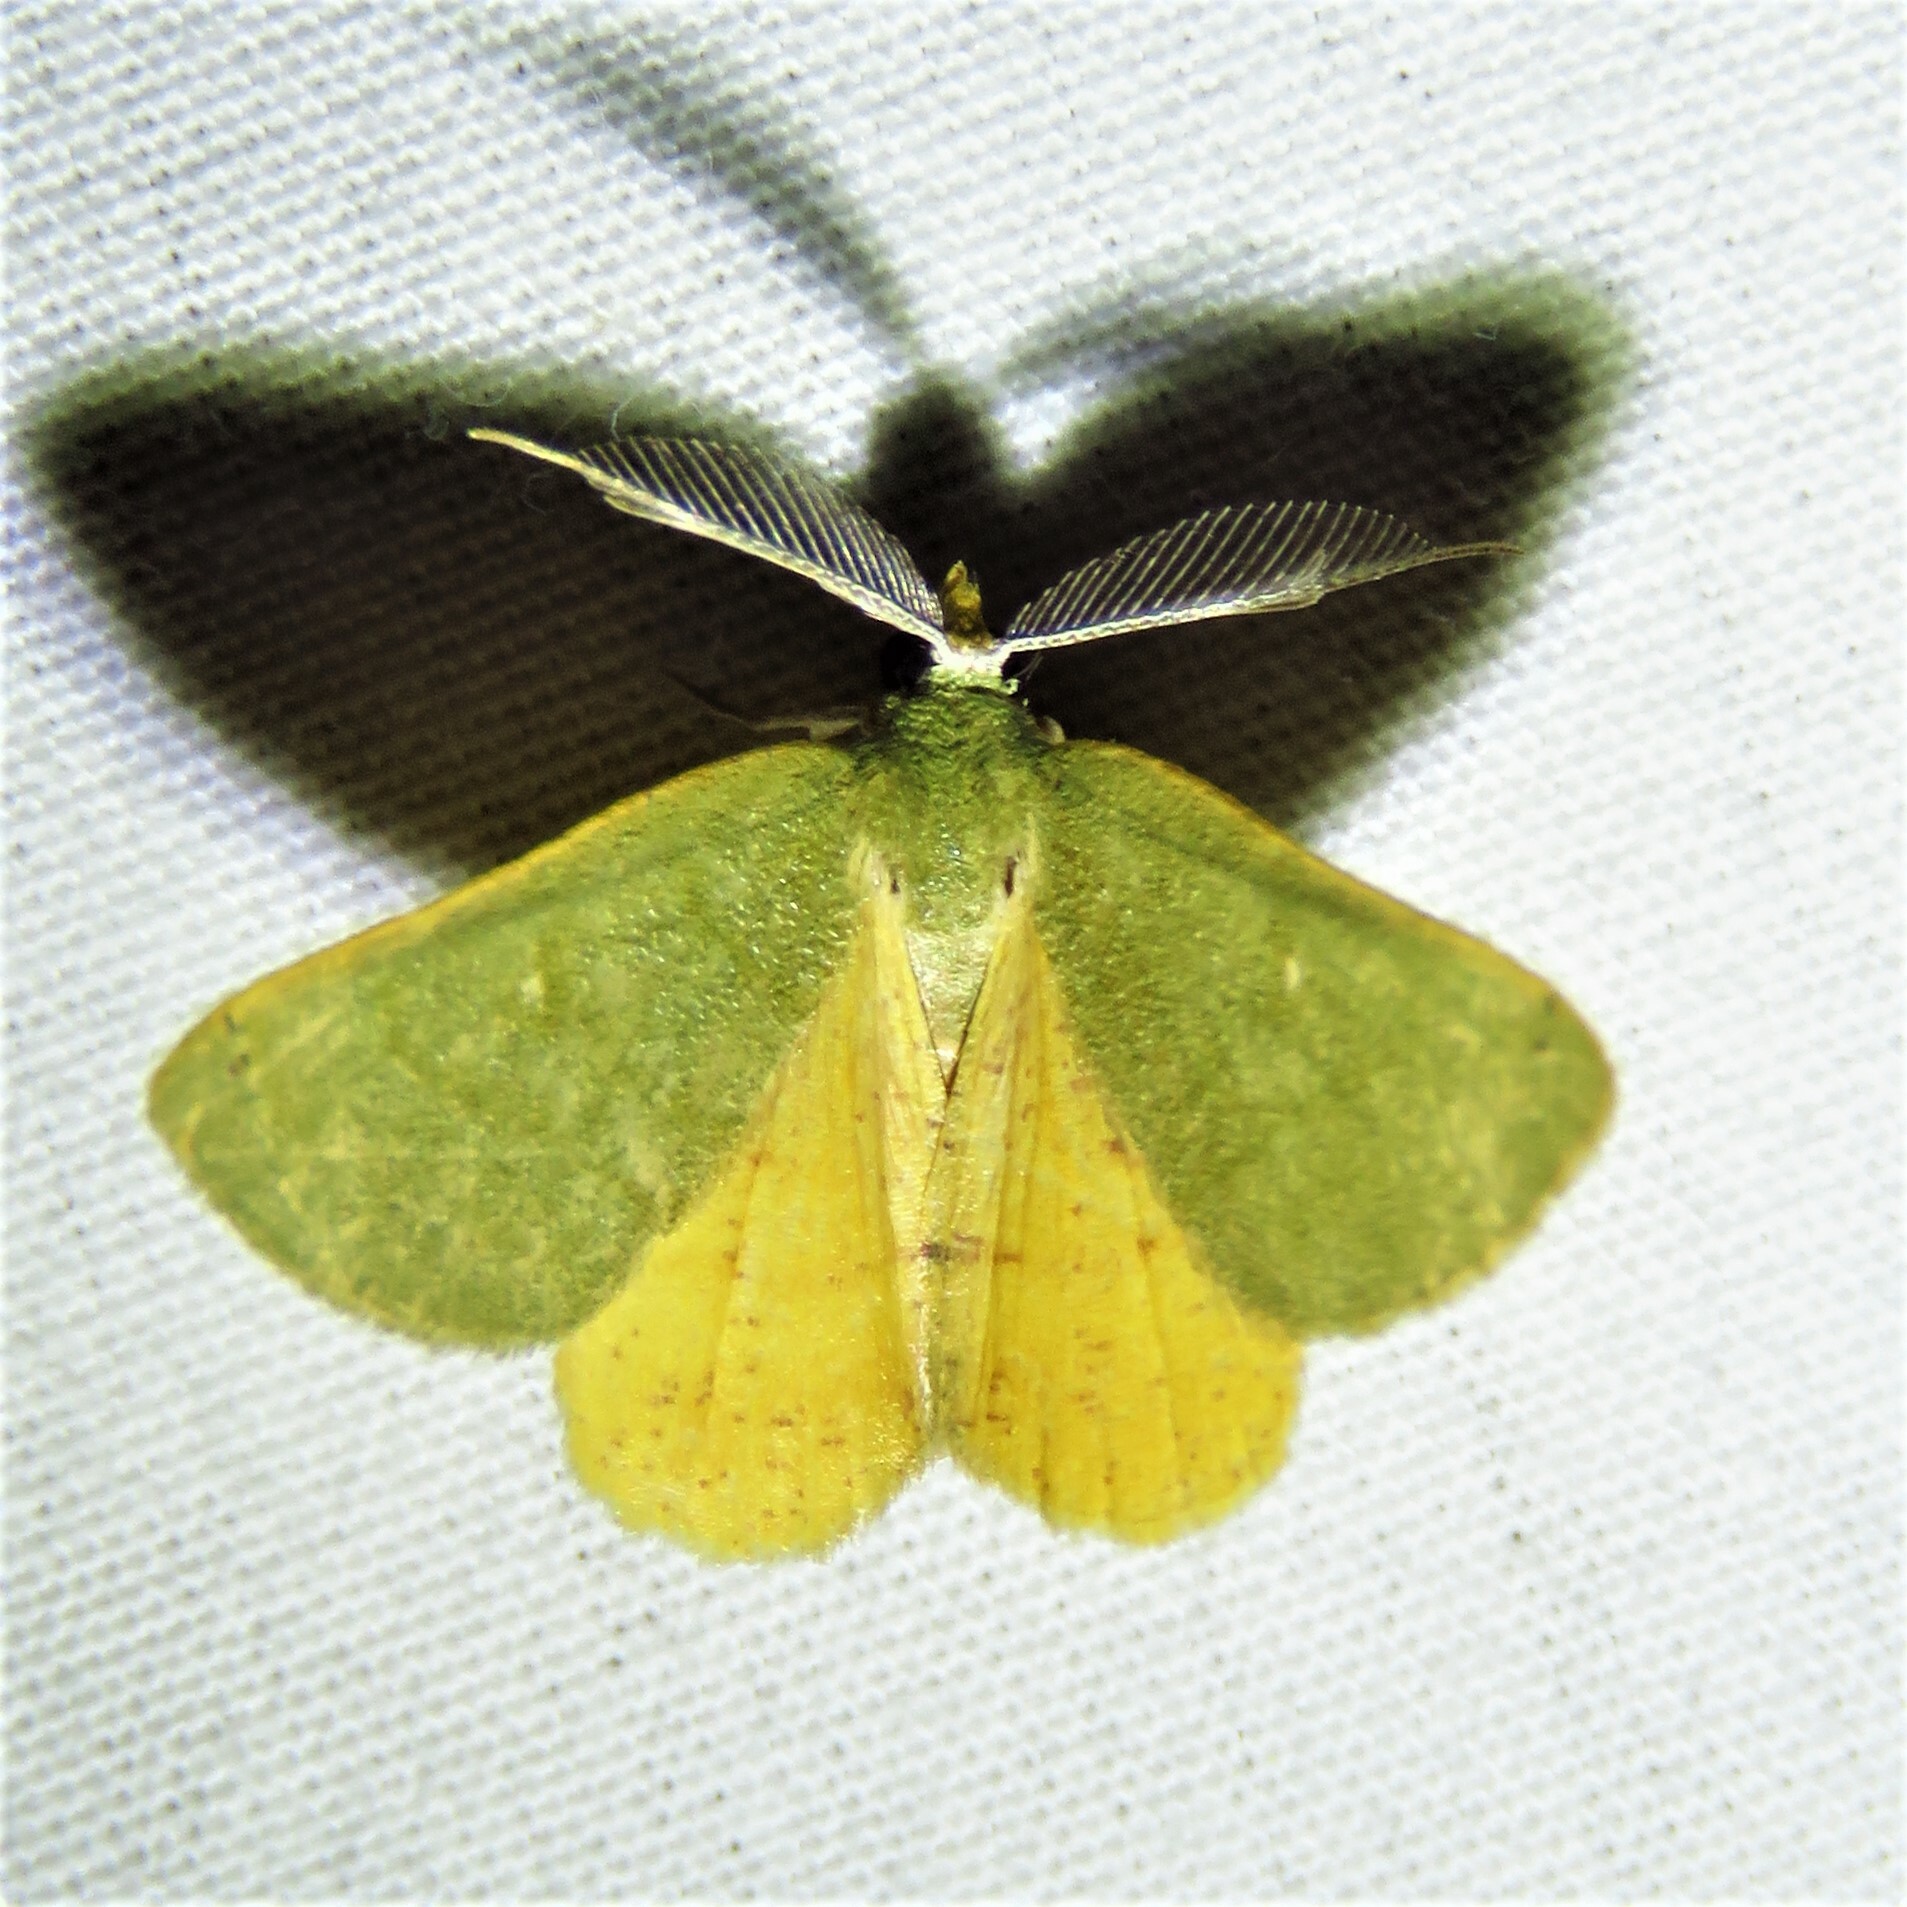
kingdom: Animalia
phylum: Arthropoda
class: Insecta
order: Lepidoptera
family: Geometridae
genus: Chloraspilates
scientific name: Chloraspilates bicoloraria
